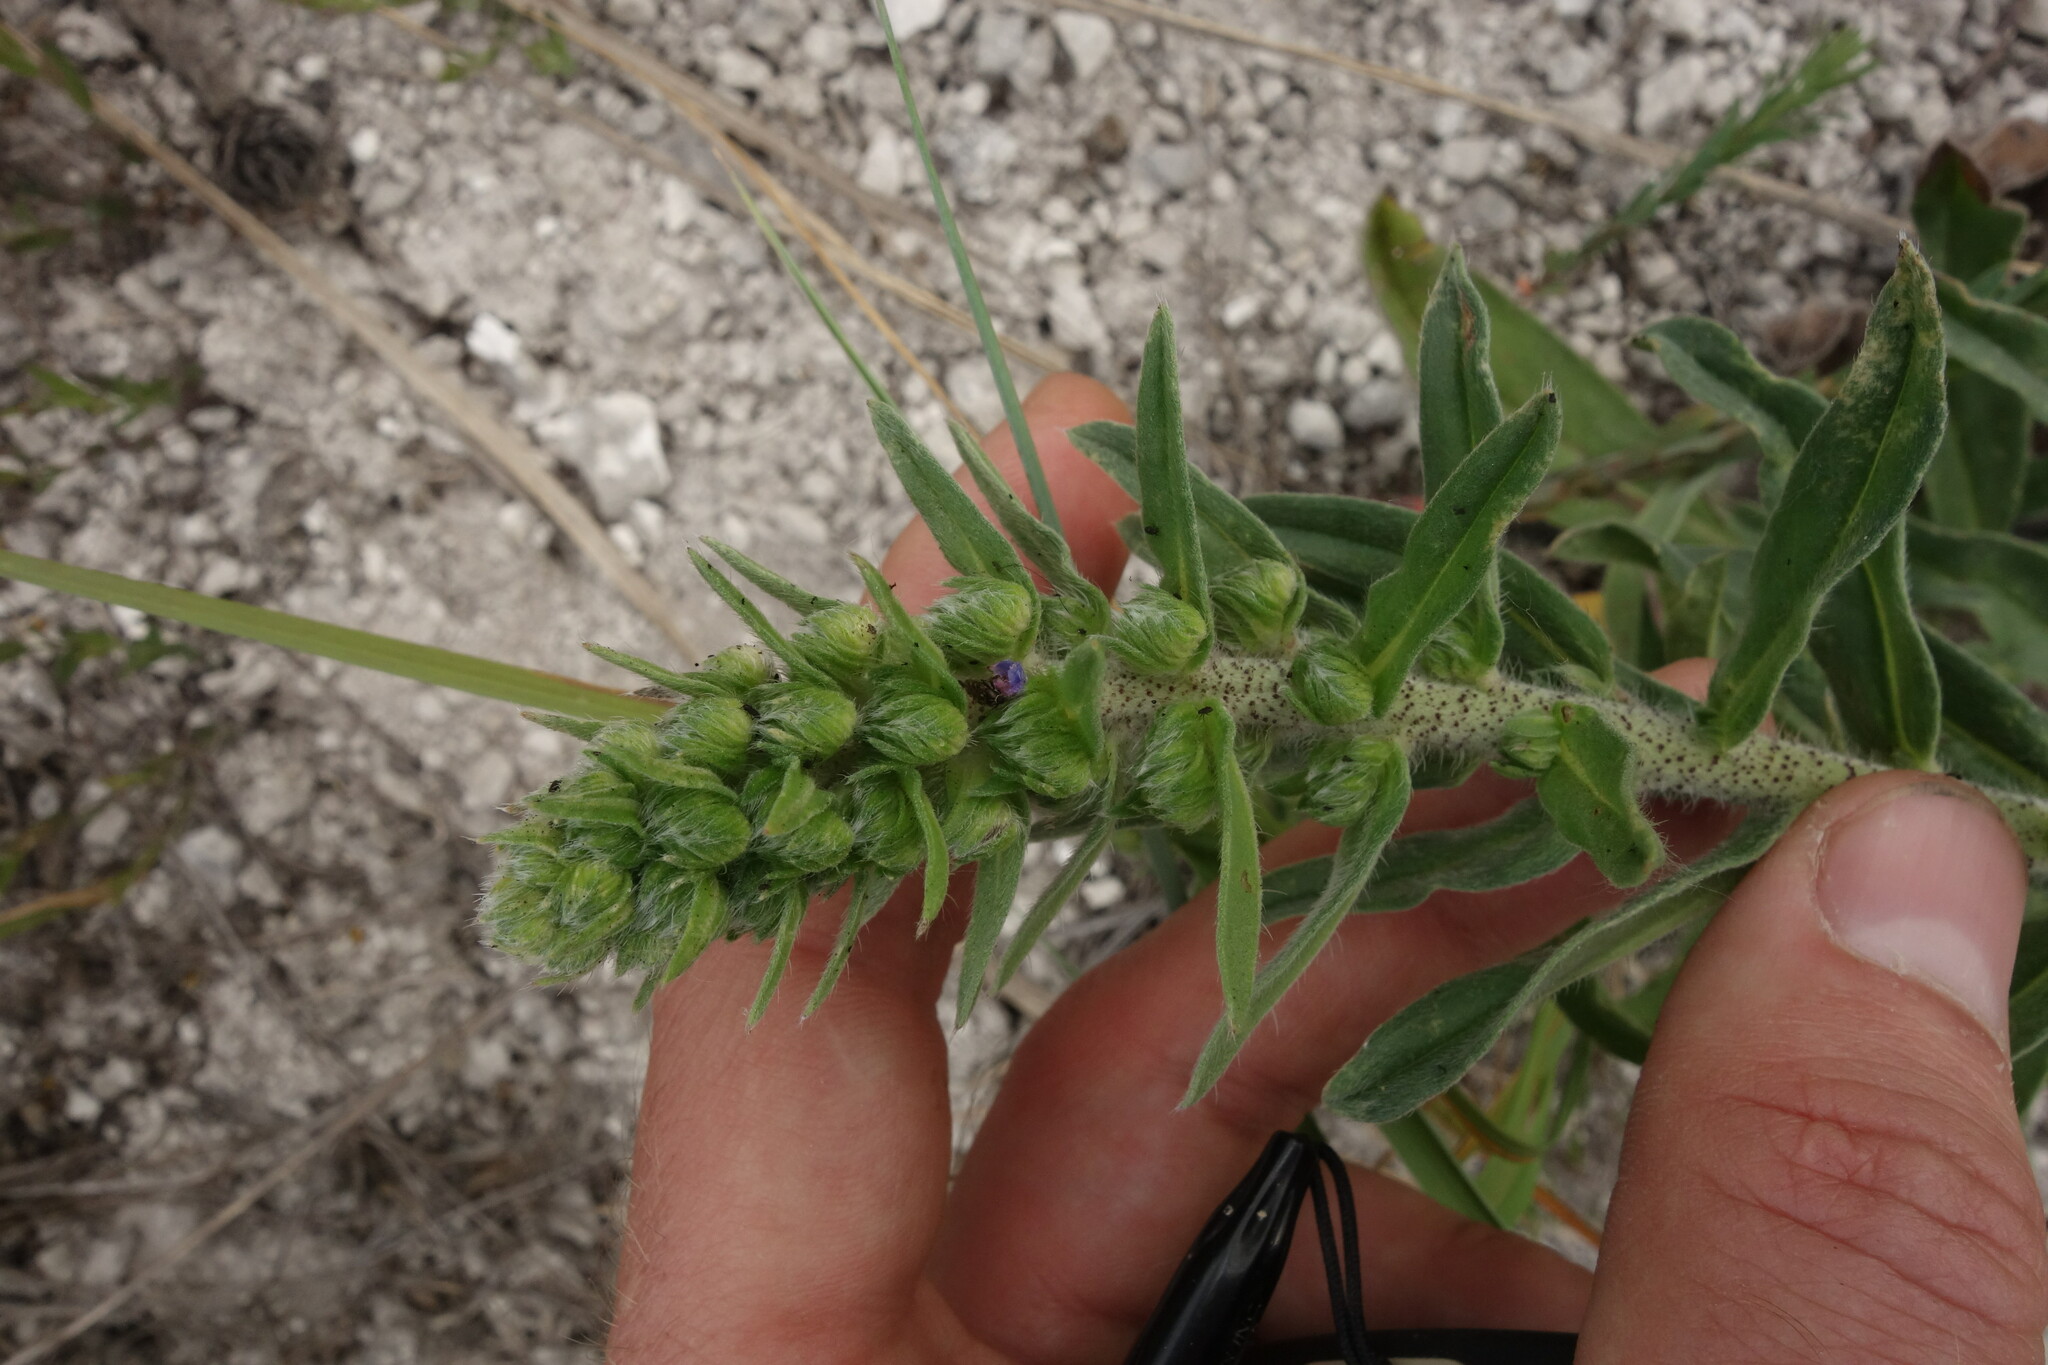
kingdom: Plantae
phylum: Tracheophyta
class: Magnoliopsida
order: Boraginales
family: Boraginaceae
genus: Echium
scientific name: Echium vulgare
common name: Common viper's bugloss
